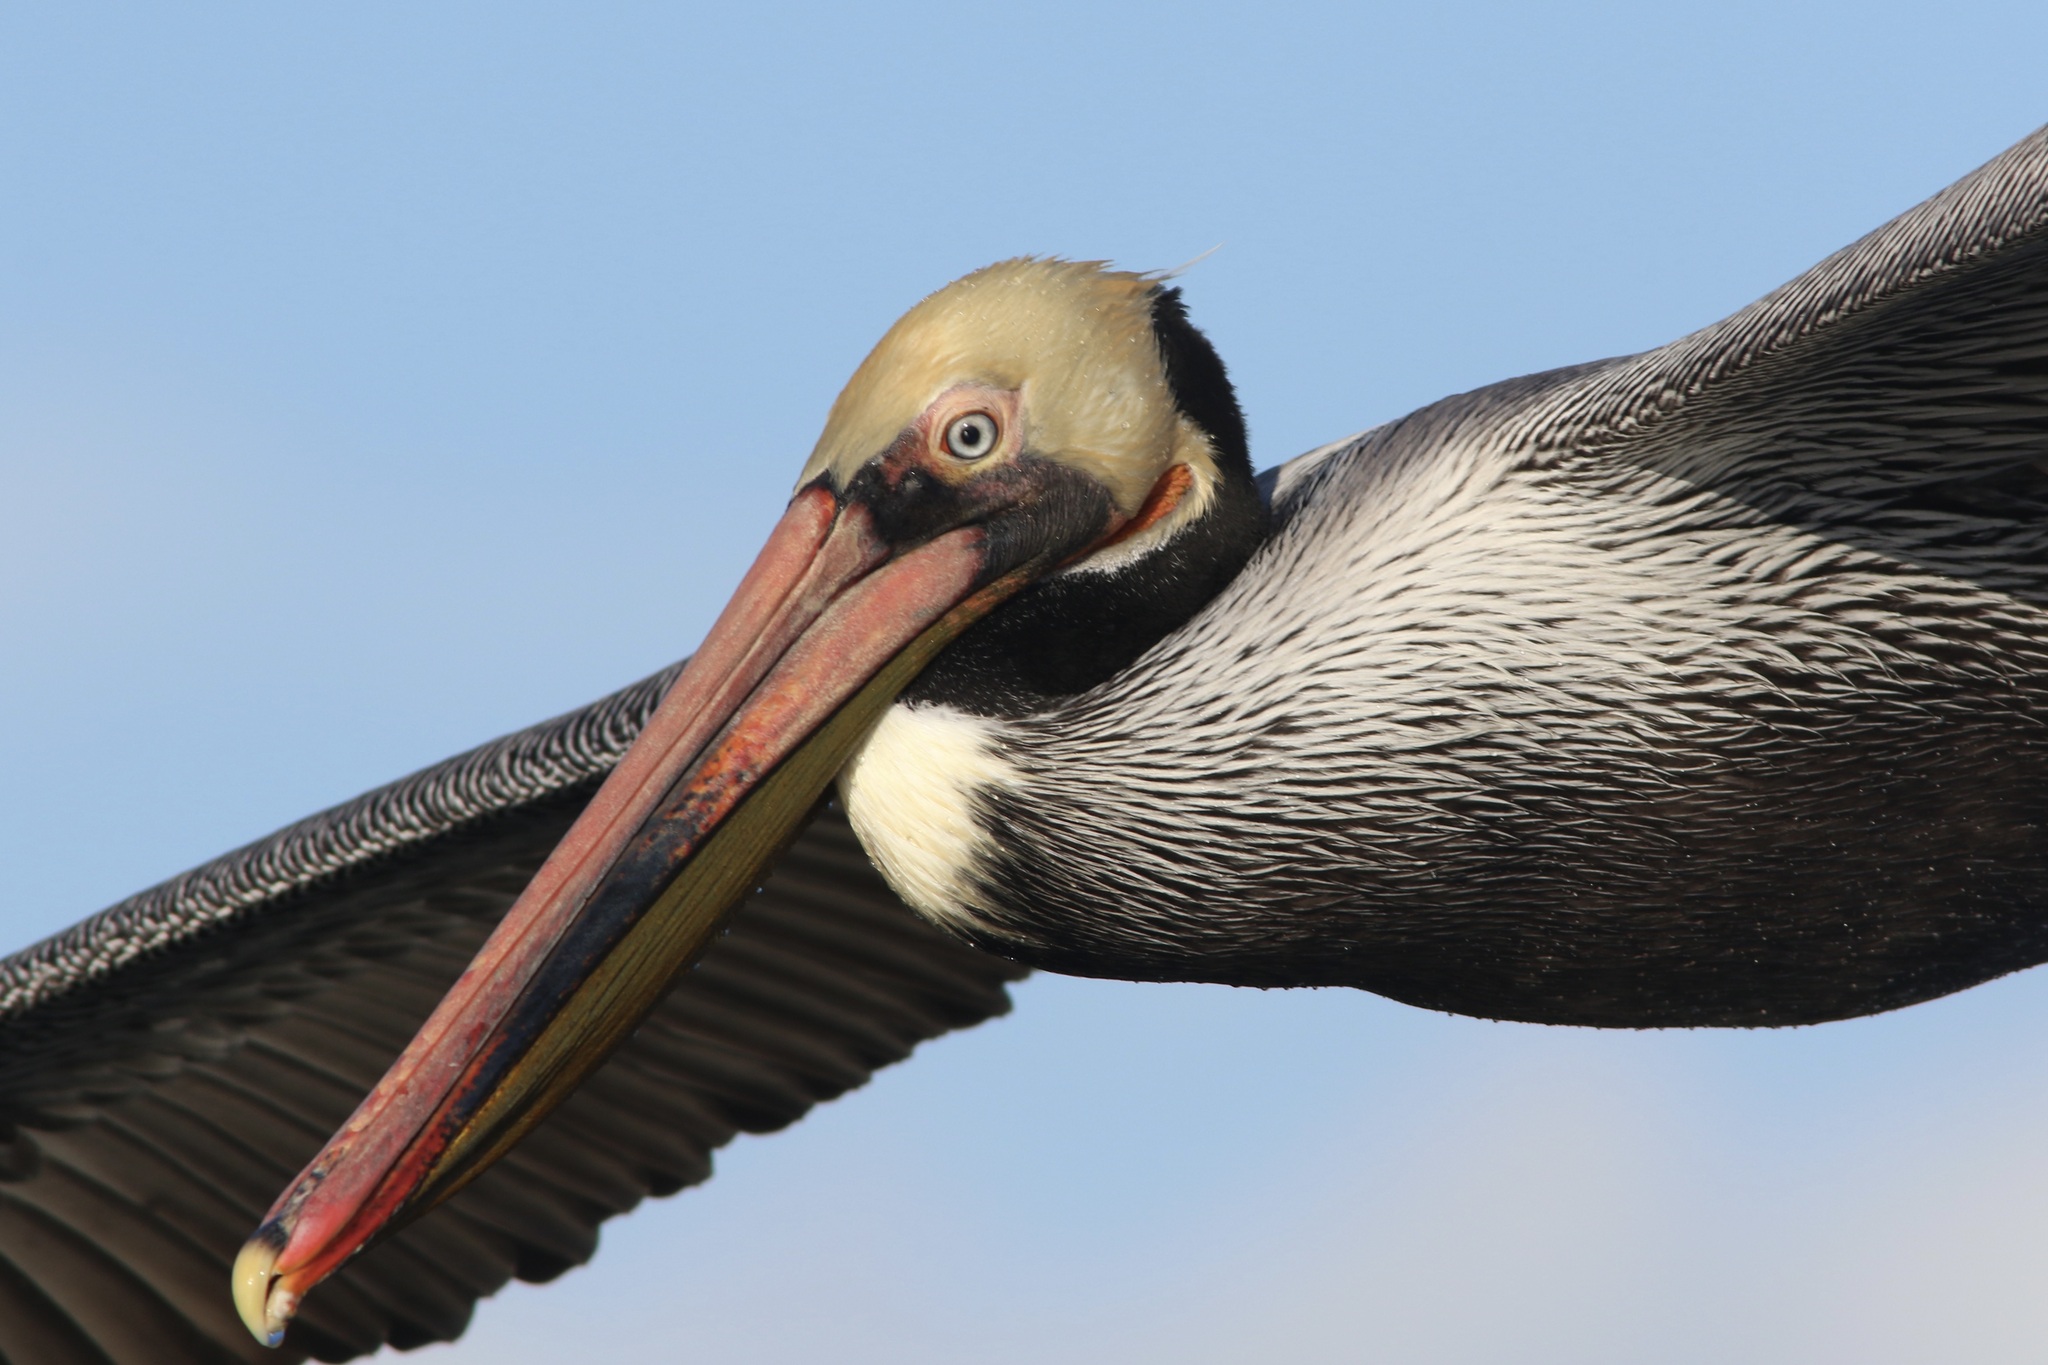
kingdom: Animalia
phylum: Chordata
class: Aves
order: Pelecaniformes
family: Pelecanidae
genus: Pelecanus
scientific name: Pelecanus occidentalis
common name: Brown pelican
